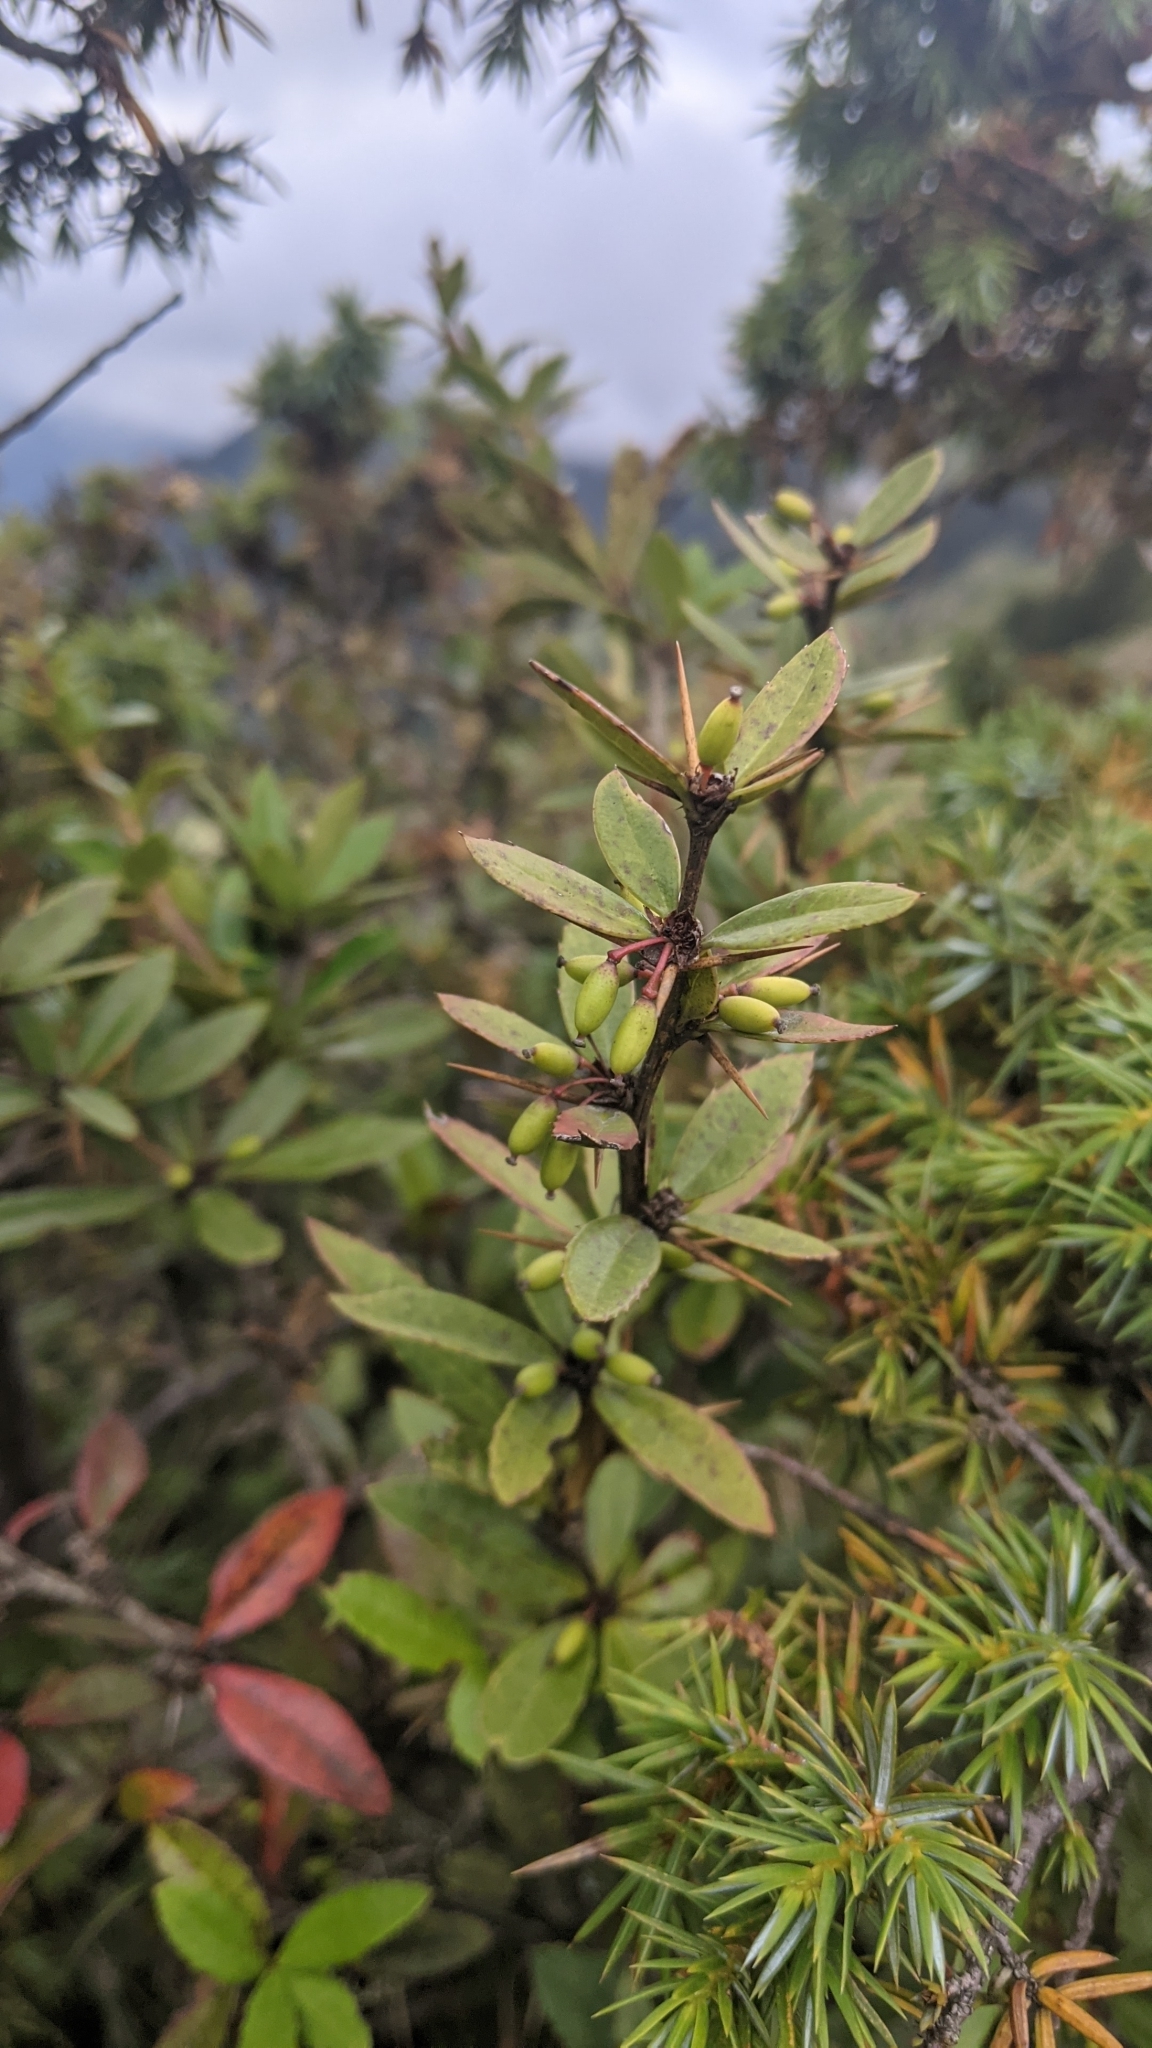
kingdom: Plantae
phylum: Tracheophyta
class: Magnoliopsida
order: Ranunculales
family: Berberidaceae
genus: Berberis
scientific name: Berberis kawakamii
